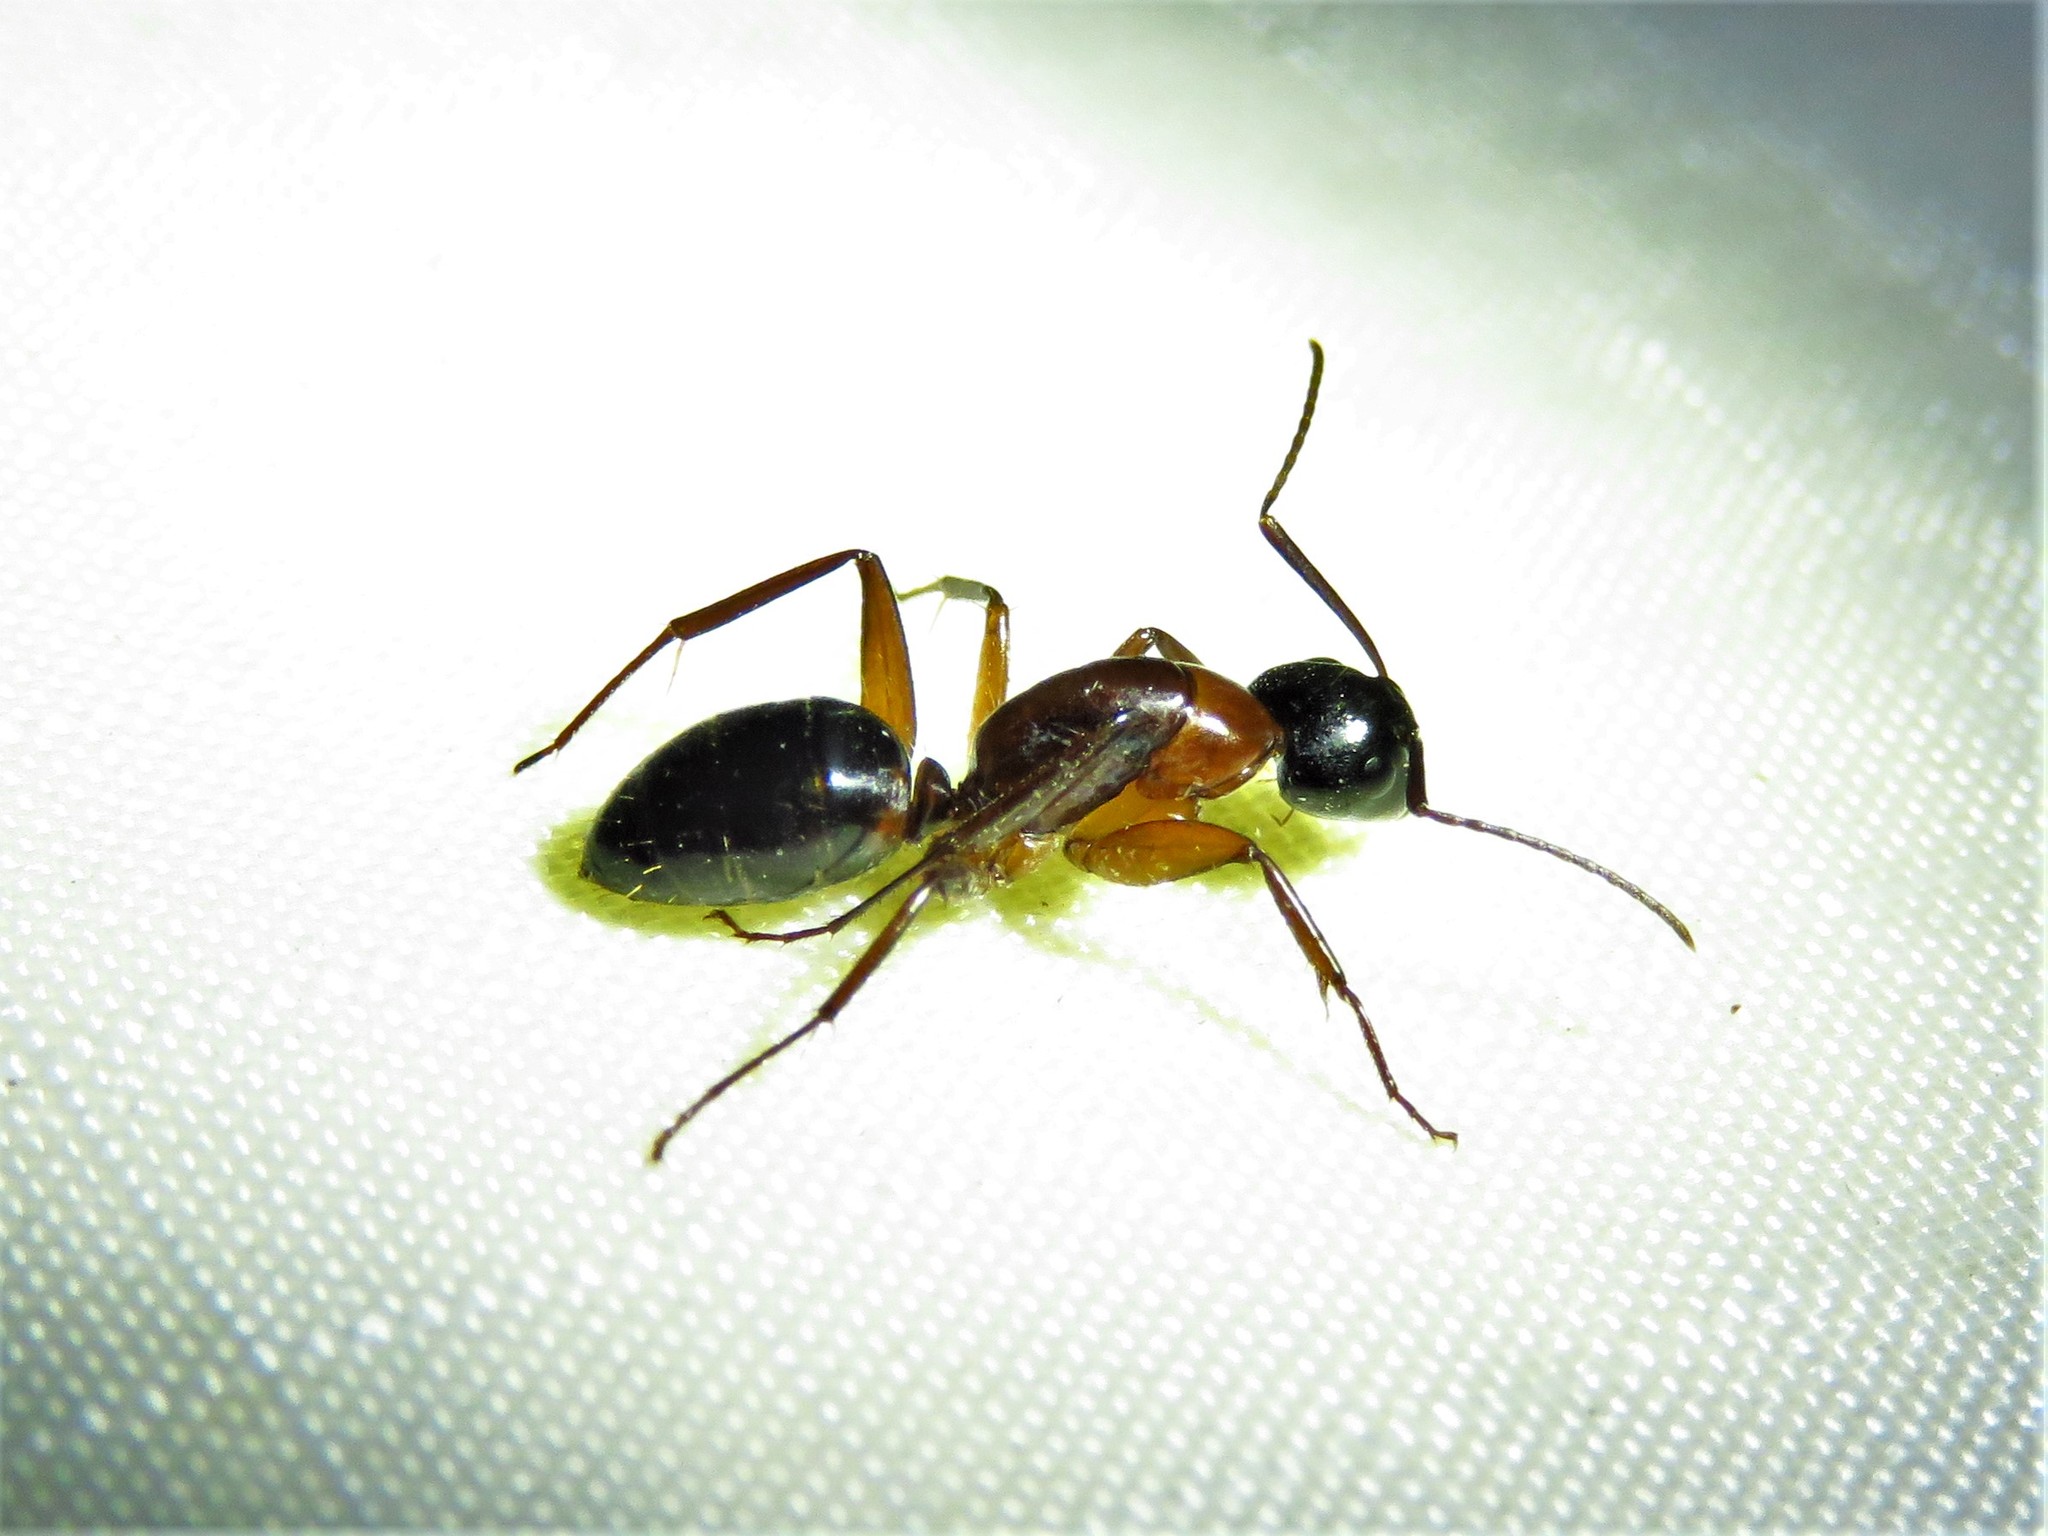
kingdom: Animalia
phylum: Arthropoda
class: Insecta
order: Hymenoptera
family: Formicidae
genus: Camponotus
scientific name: Camponotus texanus
